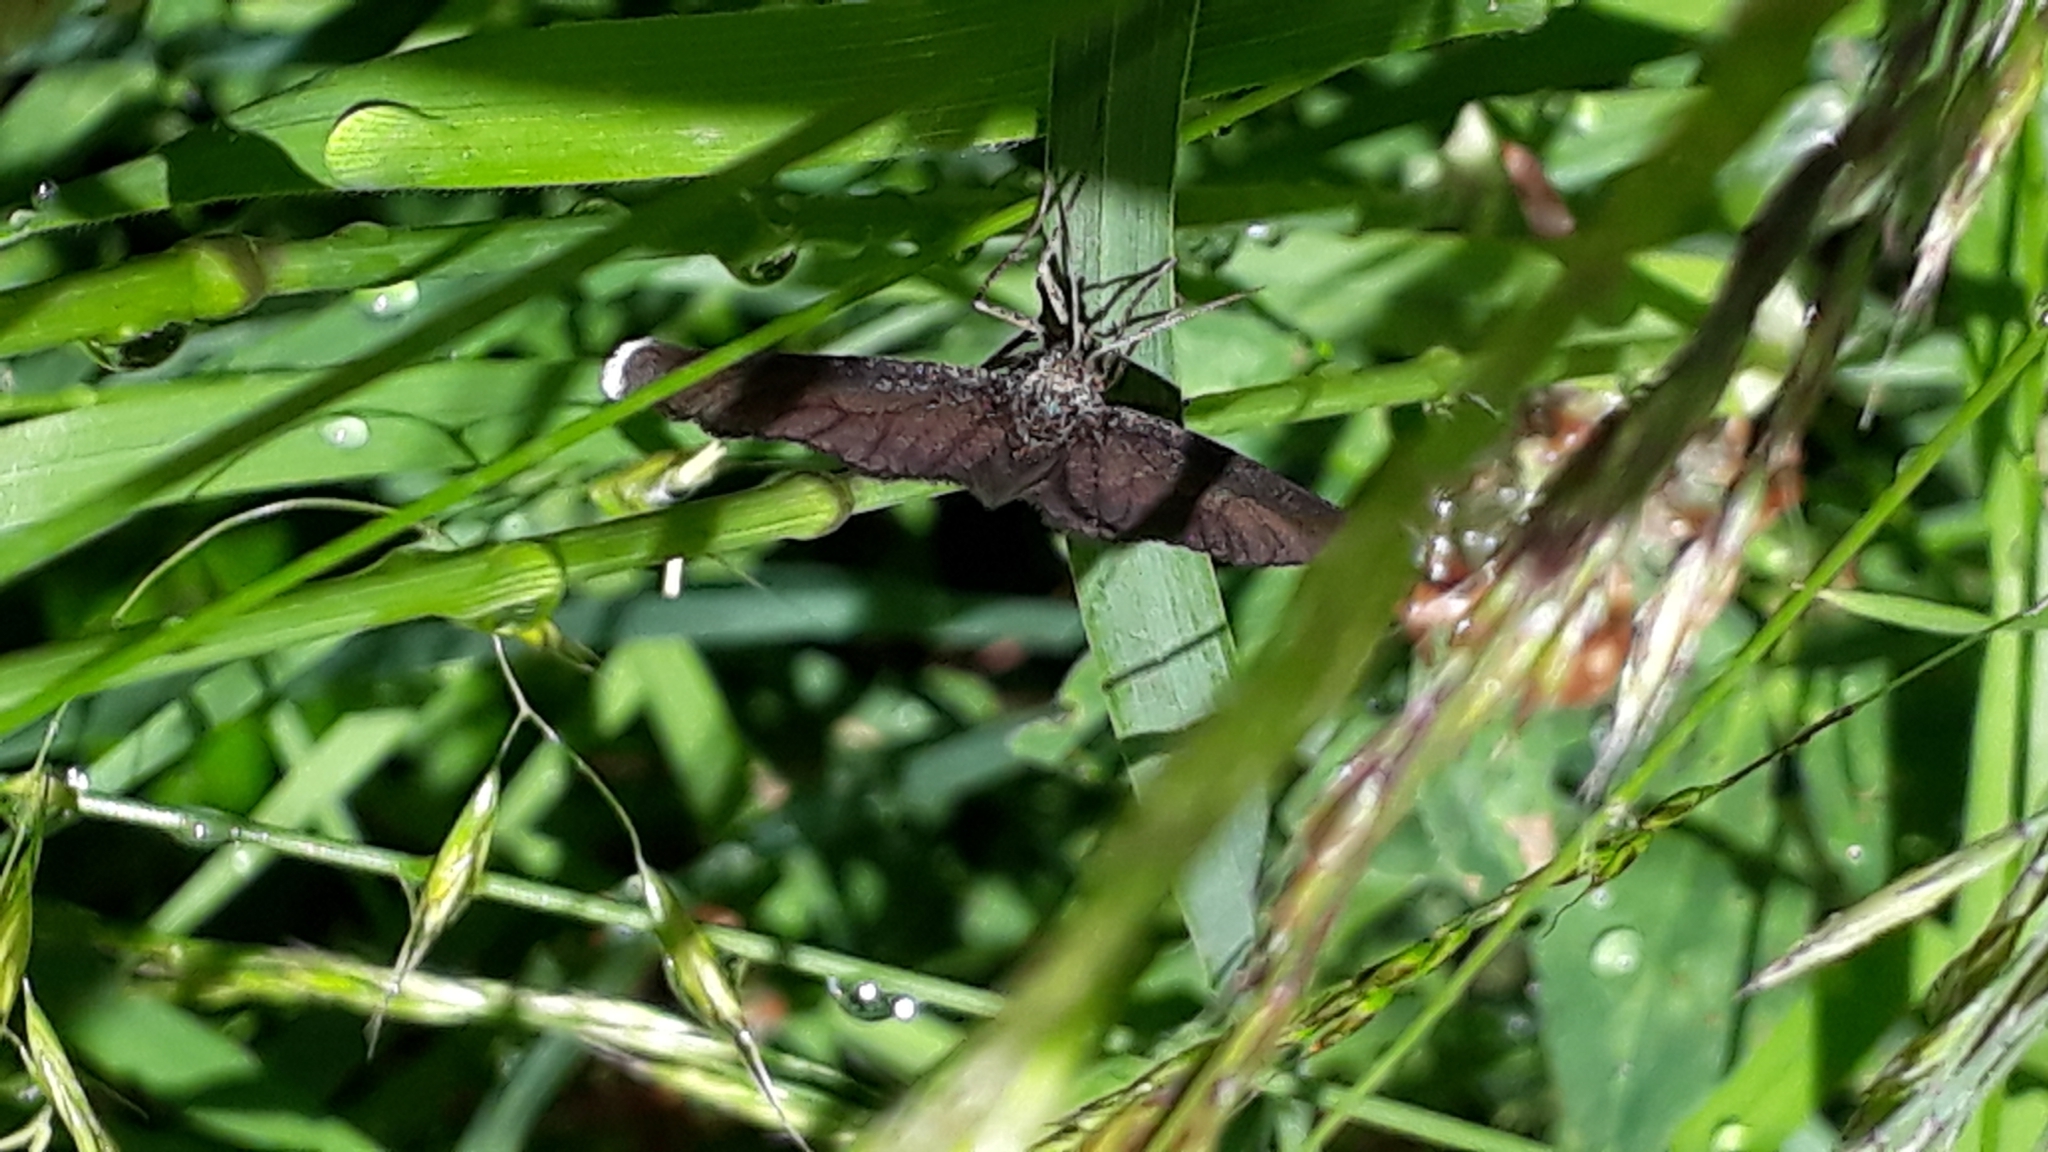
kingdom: Animalia
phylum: Arthropoda
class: Insecta
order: Lepidoptera
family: Geometridae
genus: Odezia
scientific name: Odezia atrata
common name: Chimney sweeper
